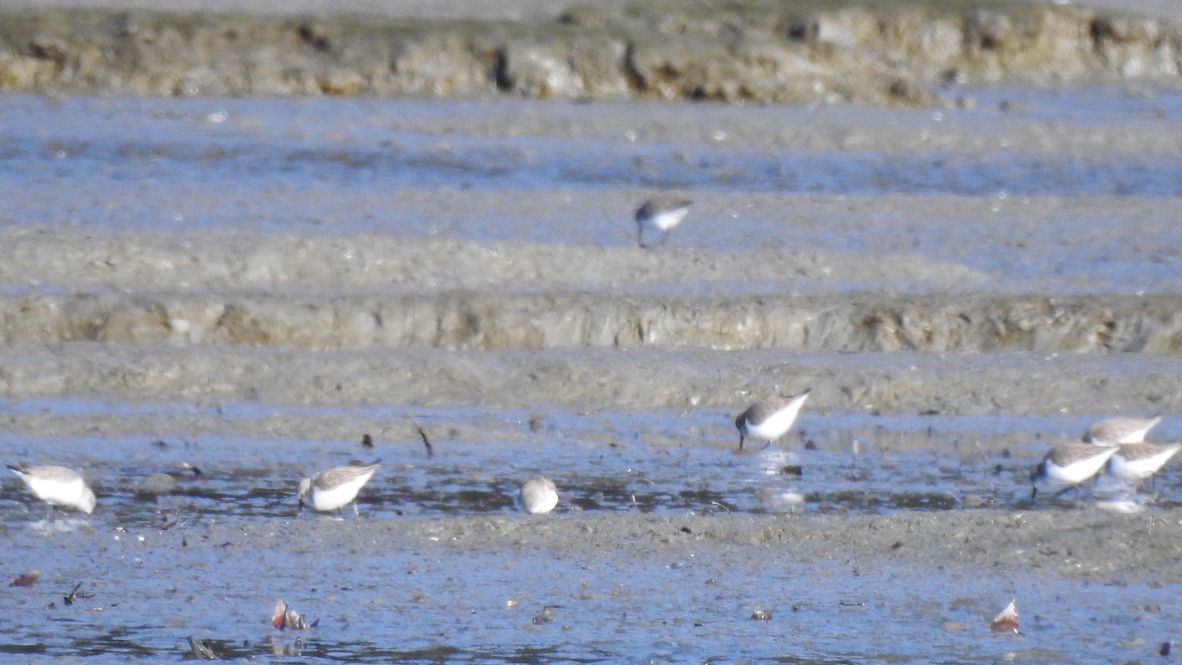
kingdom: Animalia
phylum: Chordata
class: Aves
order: Charadriiformes
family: Scolopacidae
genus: Calidris
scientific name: Calidris mauri
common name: Western sandpiper
